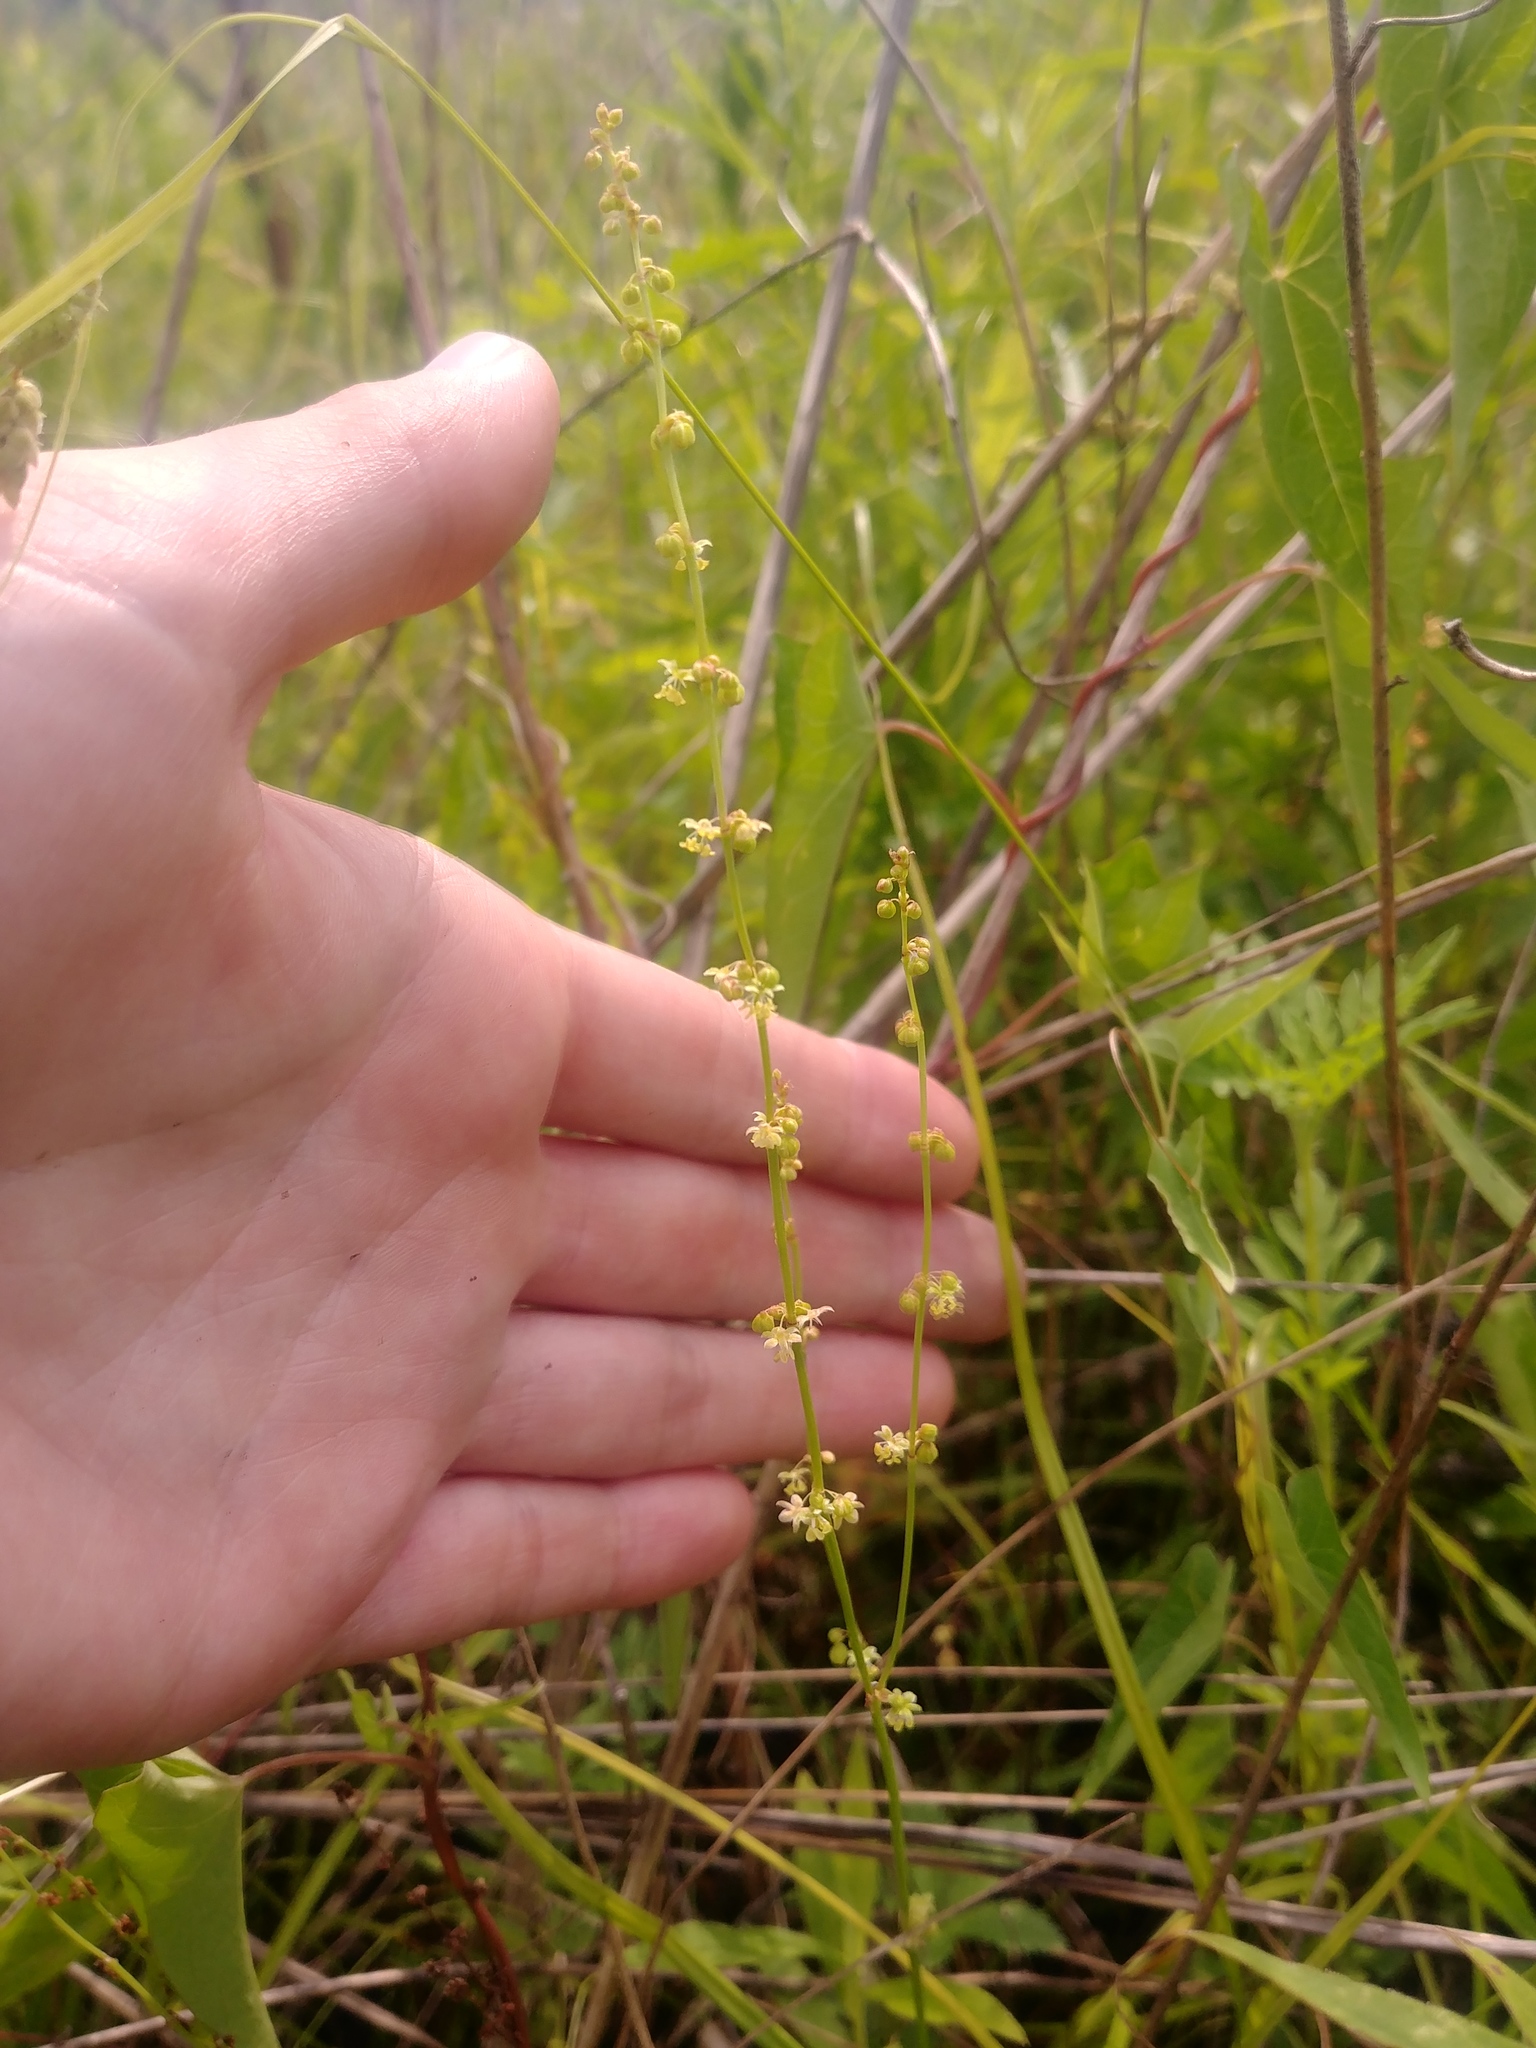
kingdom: Plantae
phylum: Tracheophyta
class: Liliopsida
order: Alismatales
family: Juncaginaceae
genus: Triglochin
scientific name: Triglochin palustris
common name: Marsh arrowgrass
